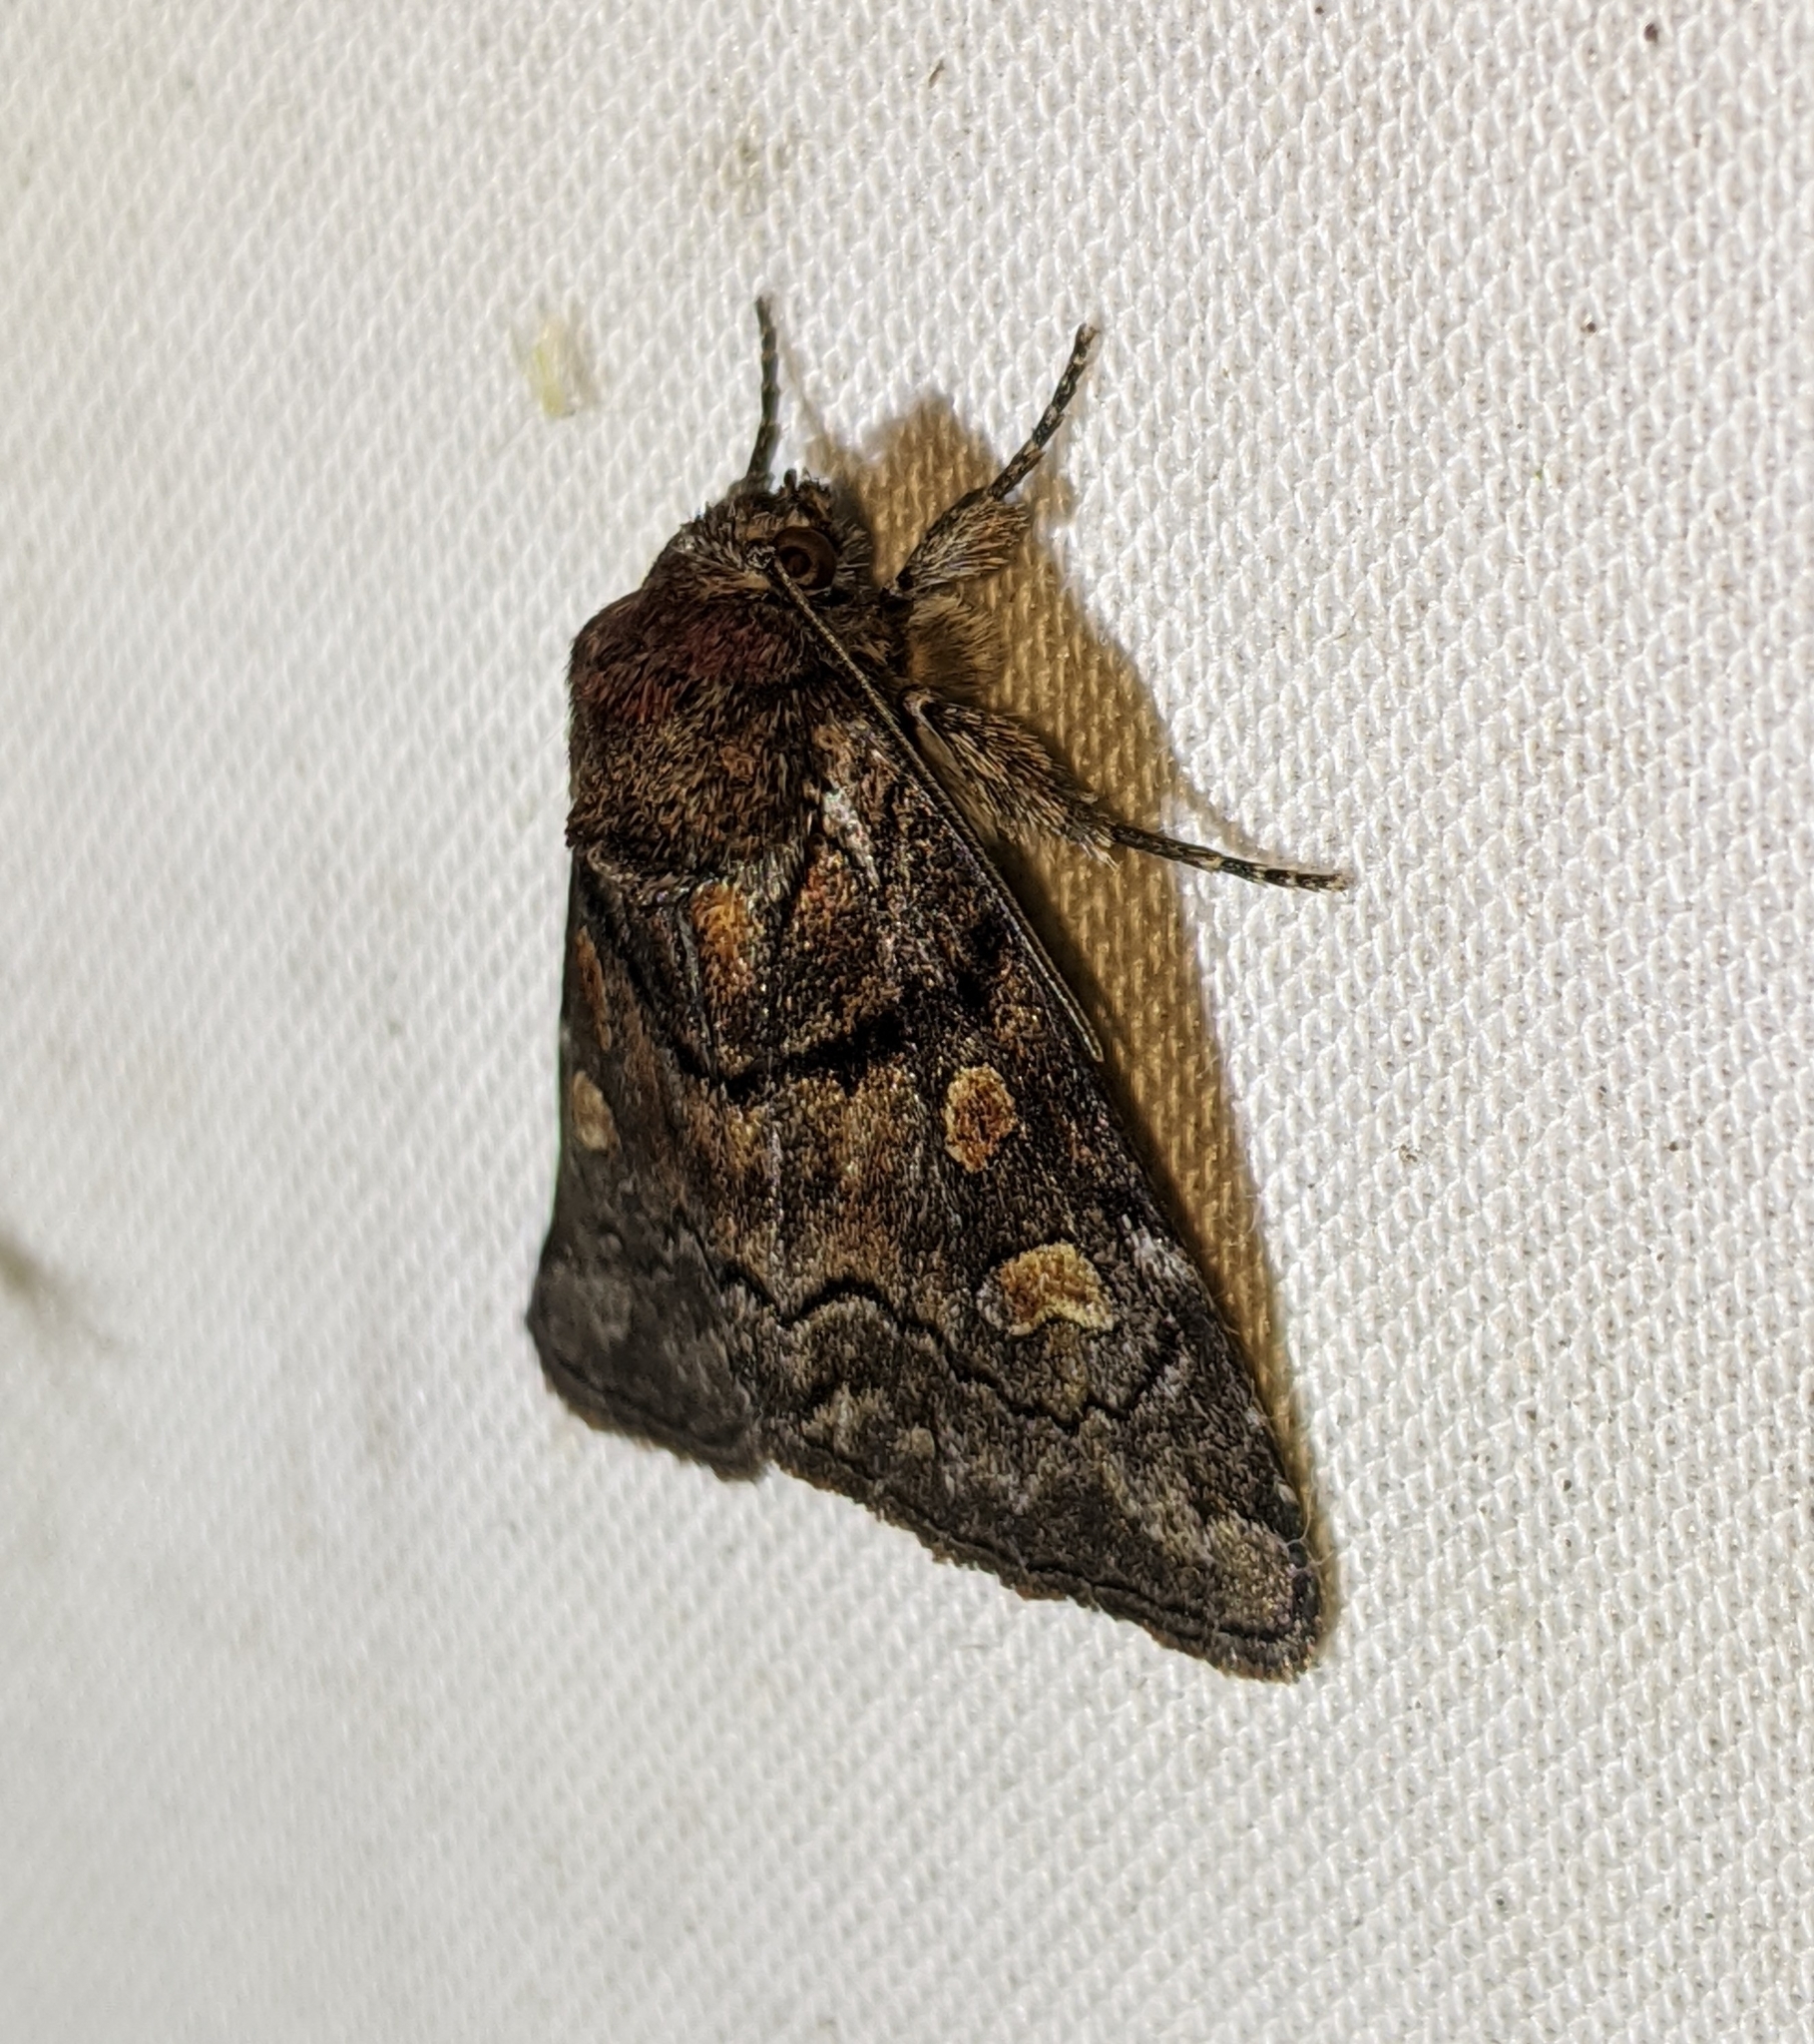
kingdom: Animalia
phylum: Arthropoda
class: Insecta
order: Lepidoptera
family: Noctuidae
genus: Cosmia
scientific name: Cosmia praeacuta
